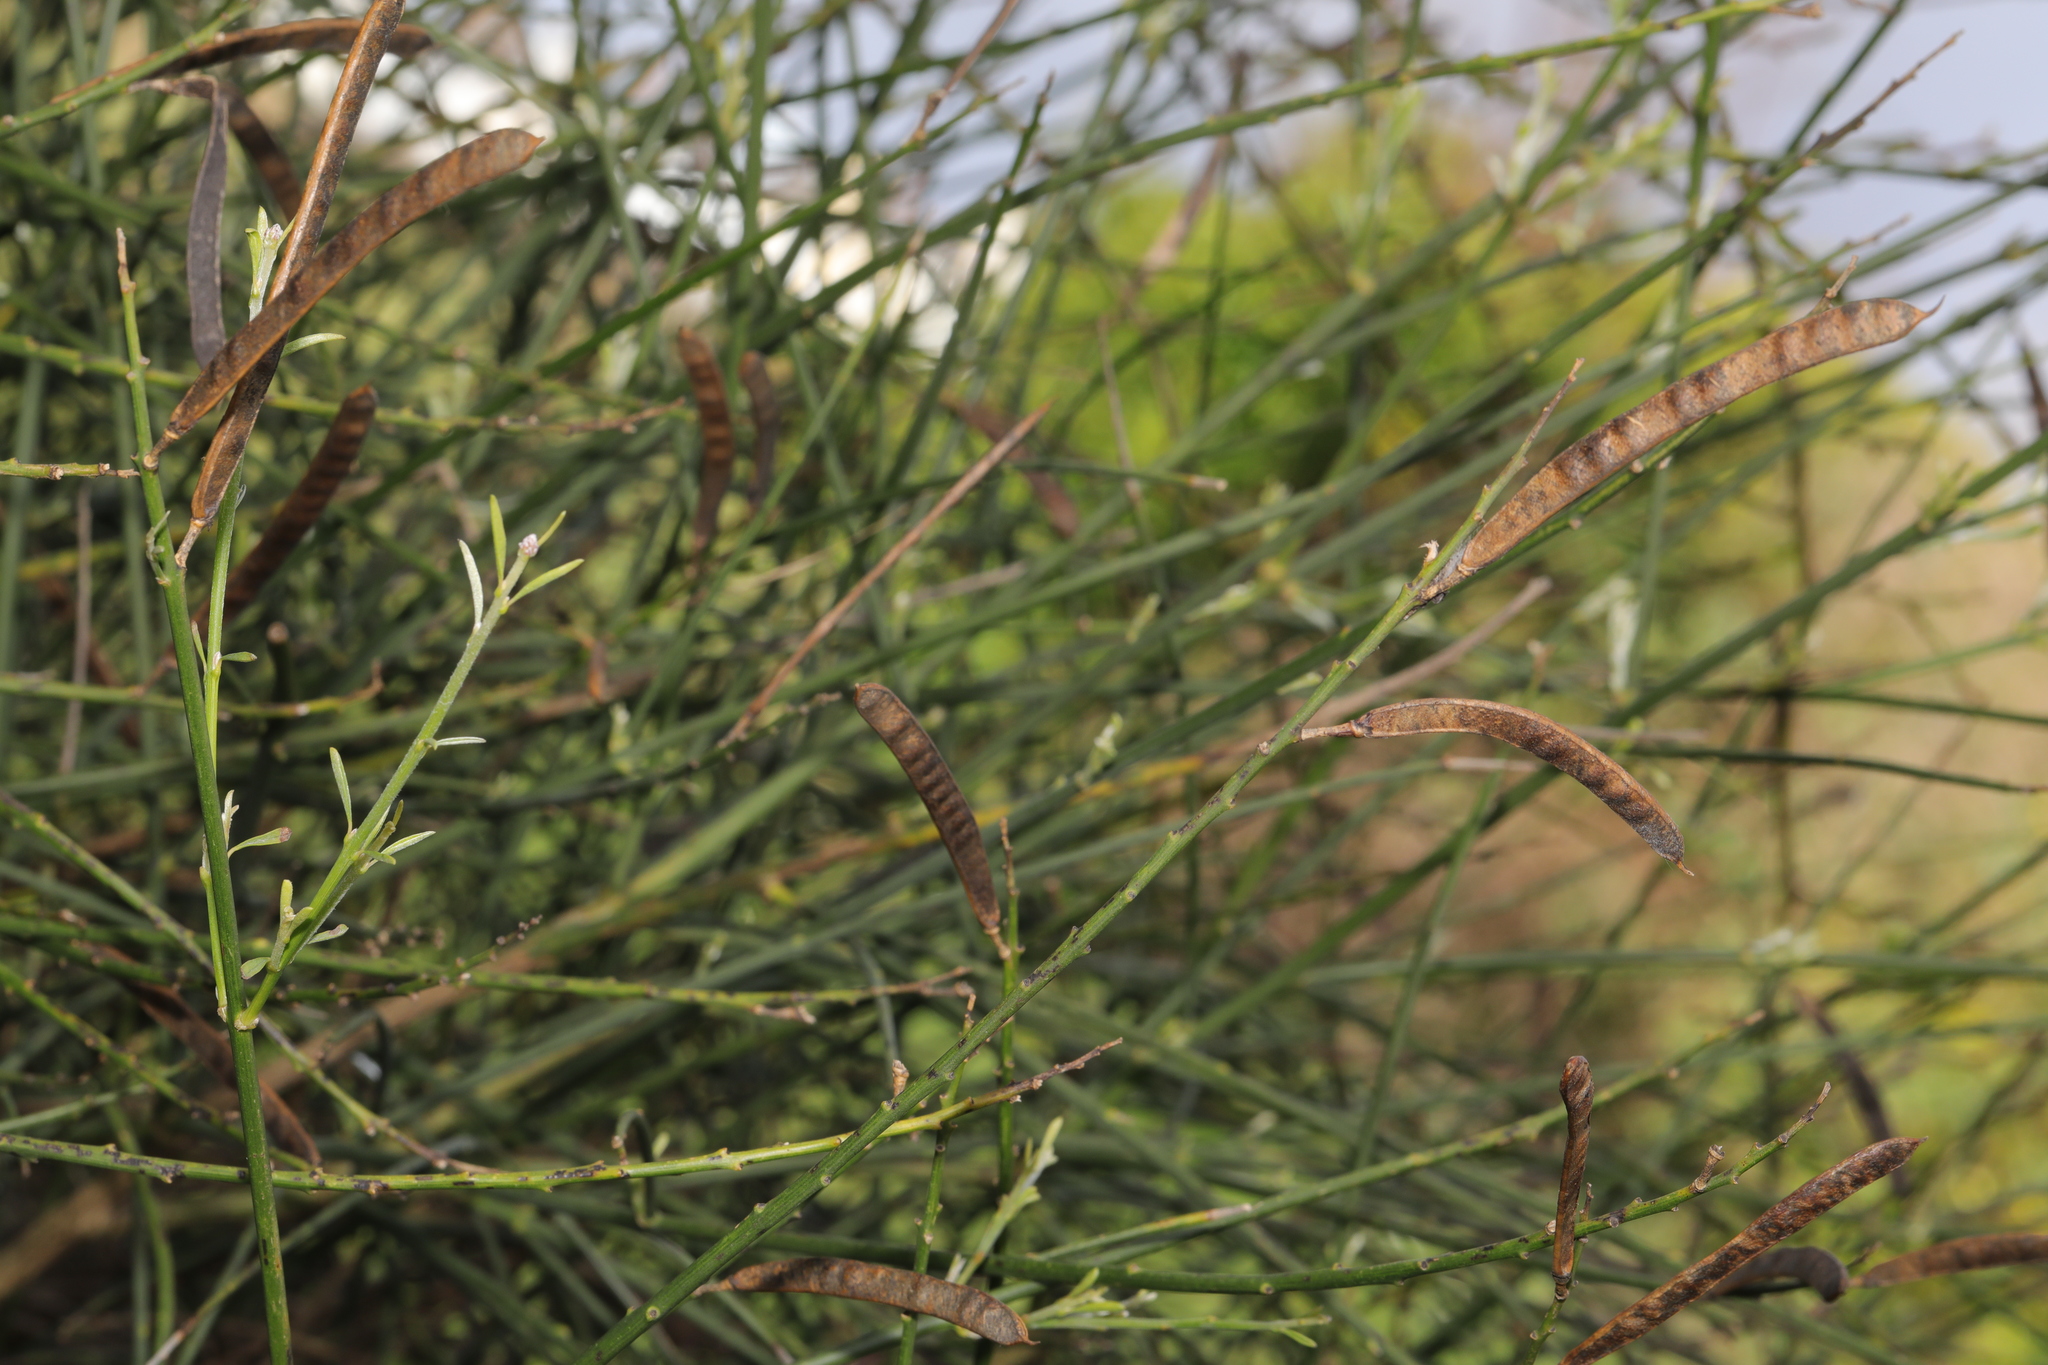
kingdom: Plantae
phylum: Tracheophyta
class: Magnoliopsida
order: Fabales
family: Fabaceae
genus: Spartium
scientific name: Spartium junceum
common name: Spanish broom
